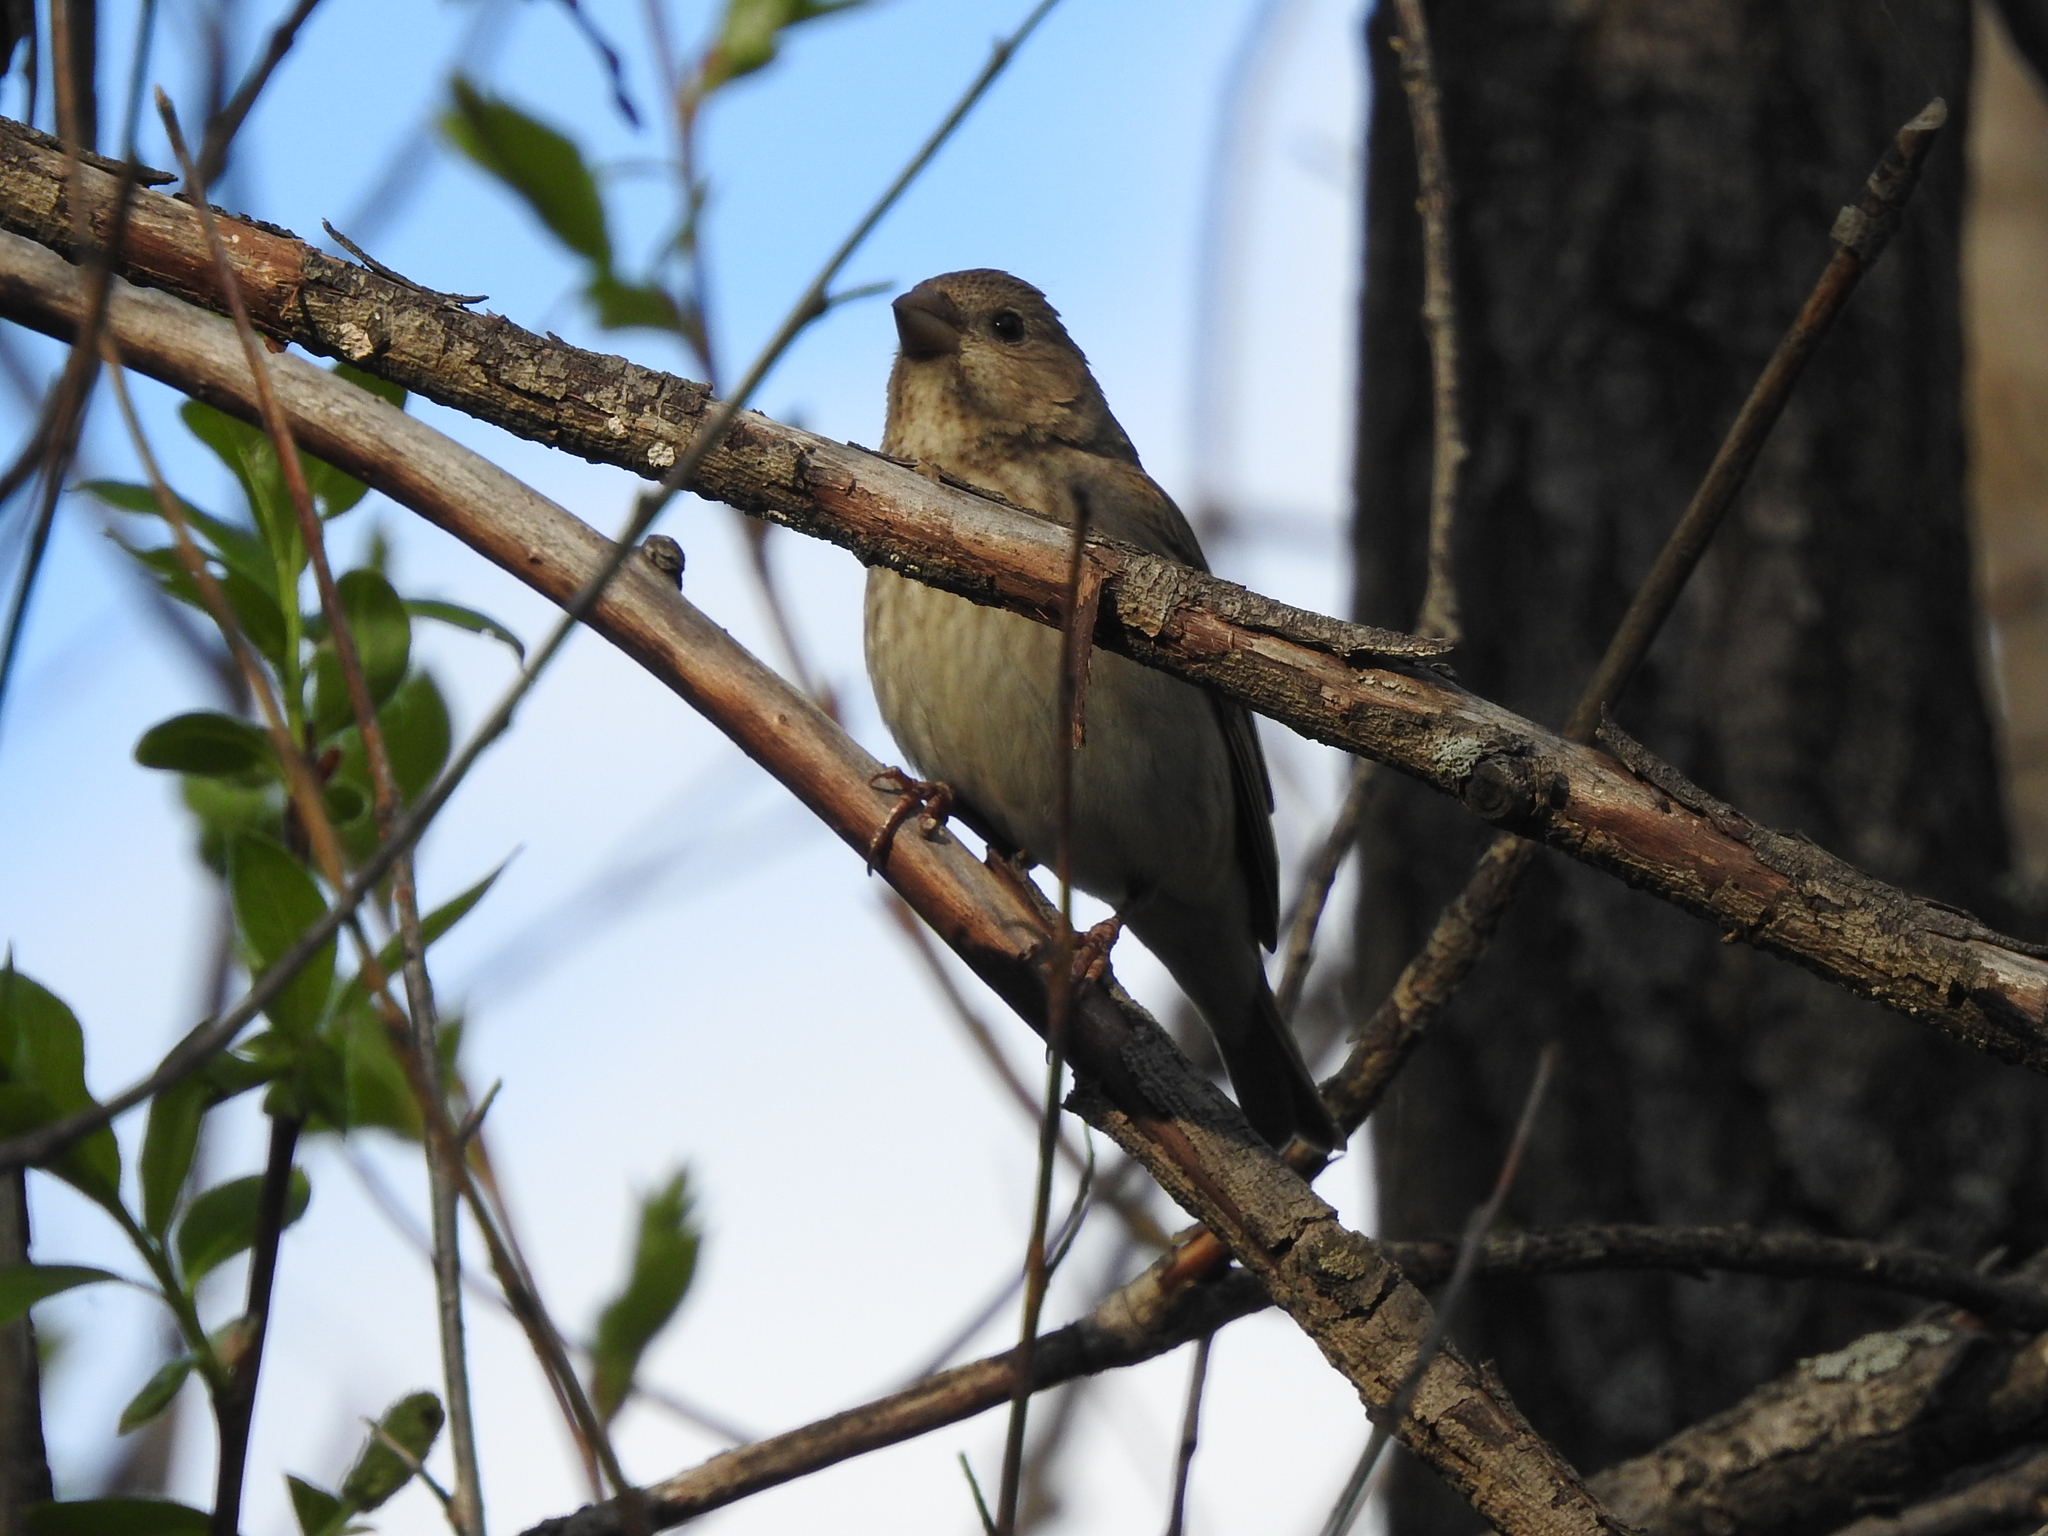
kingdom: Animalia
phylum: Chordata
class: Aves
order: Passeriformes
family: Fringillidae
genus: Carpodacus
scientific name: Carpodacus erythrinus
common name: Common rosefinch
